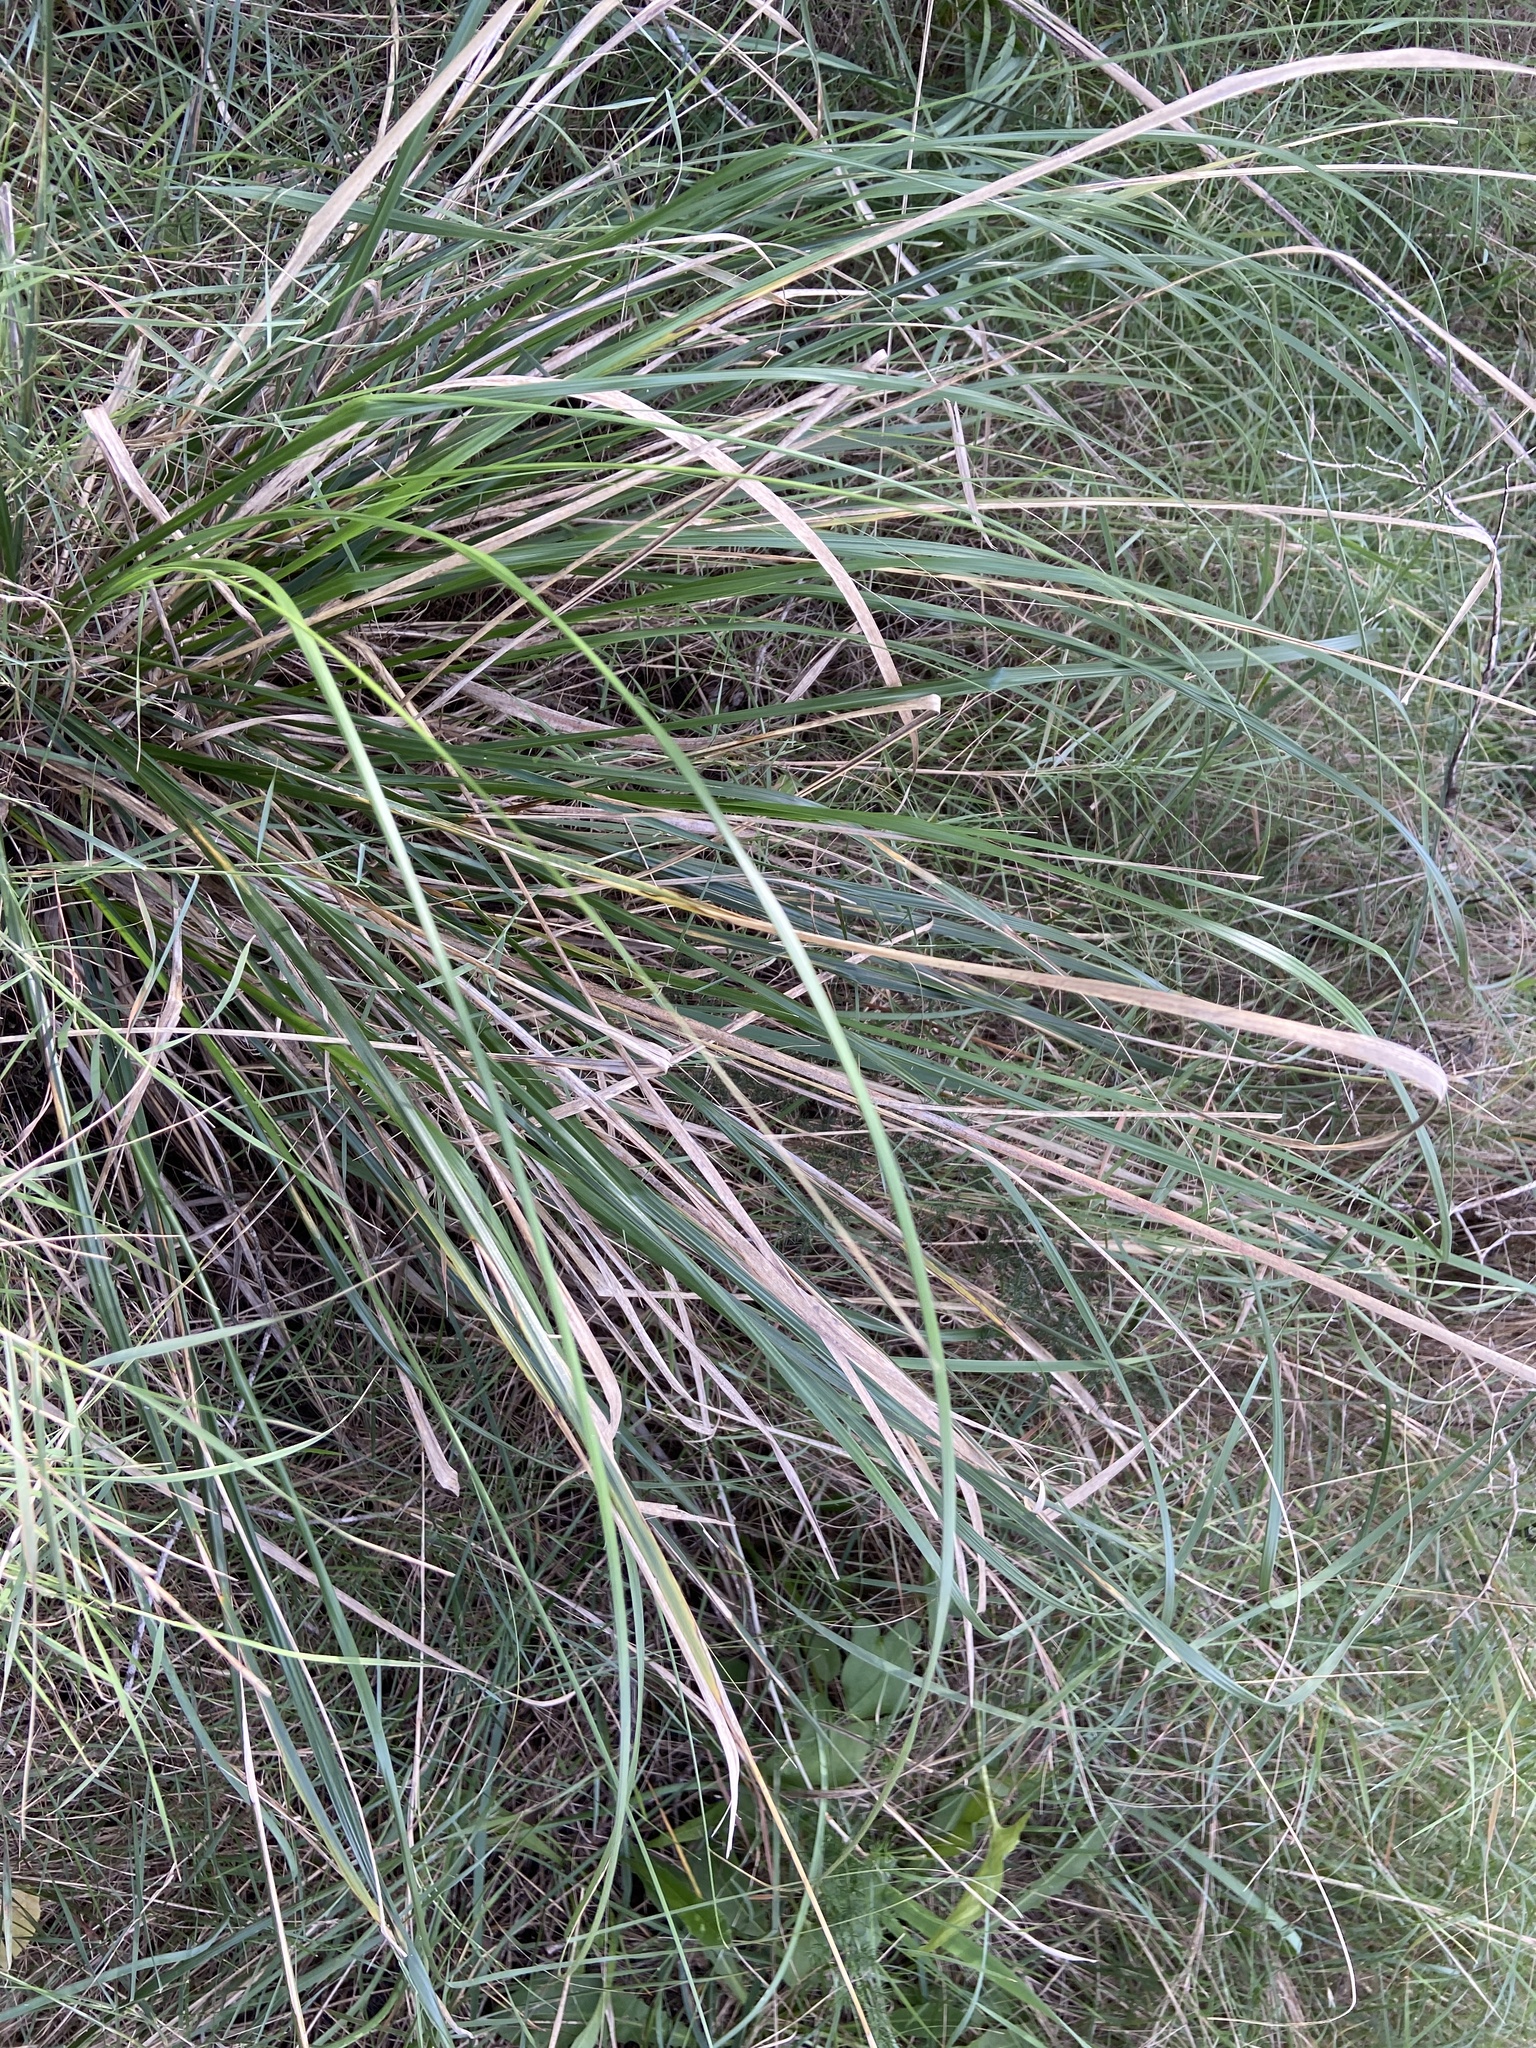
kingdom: Plantae
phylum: Tracheophyta
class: Liliopsida
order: Poales
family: Poaceae
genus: Ampelodesmos
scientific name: Ampelodesmos mauritanicus
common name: Mauritanian grass
